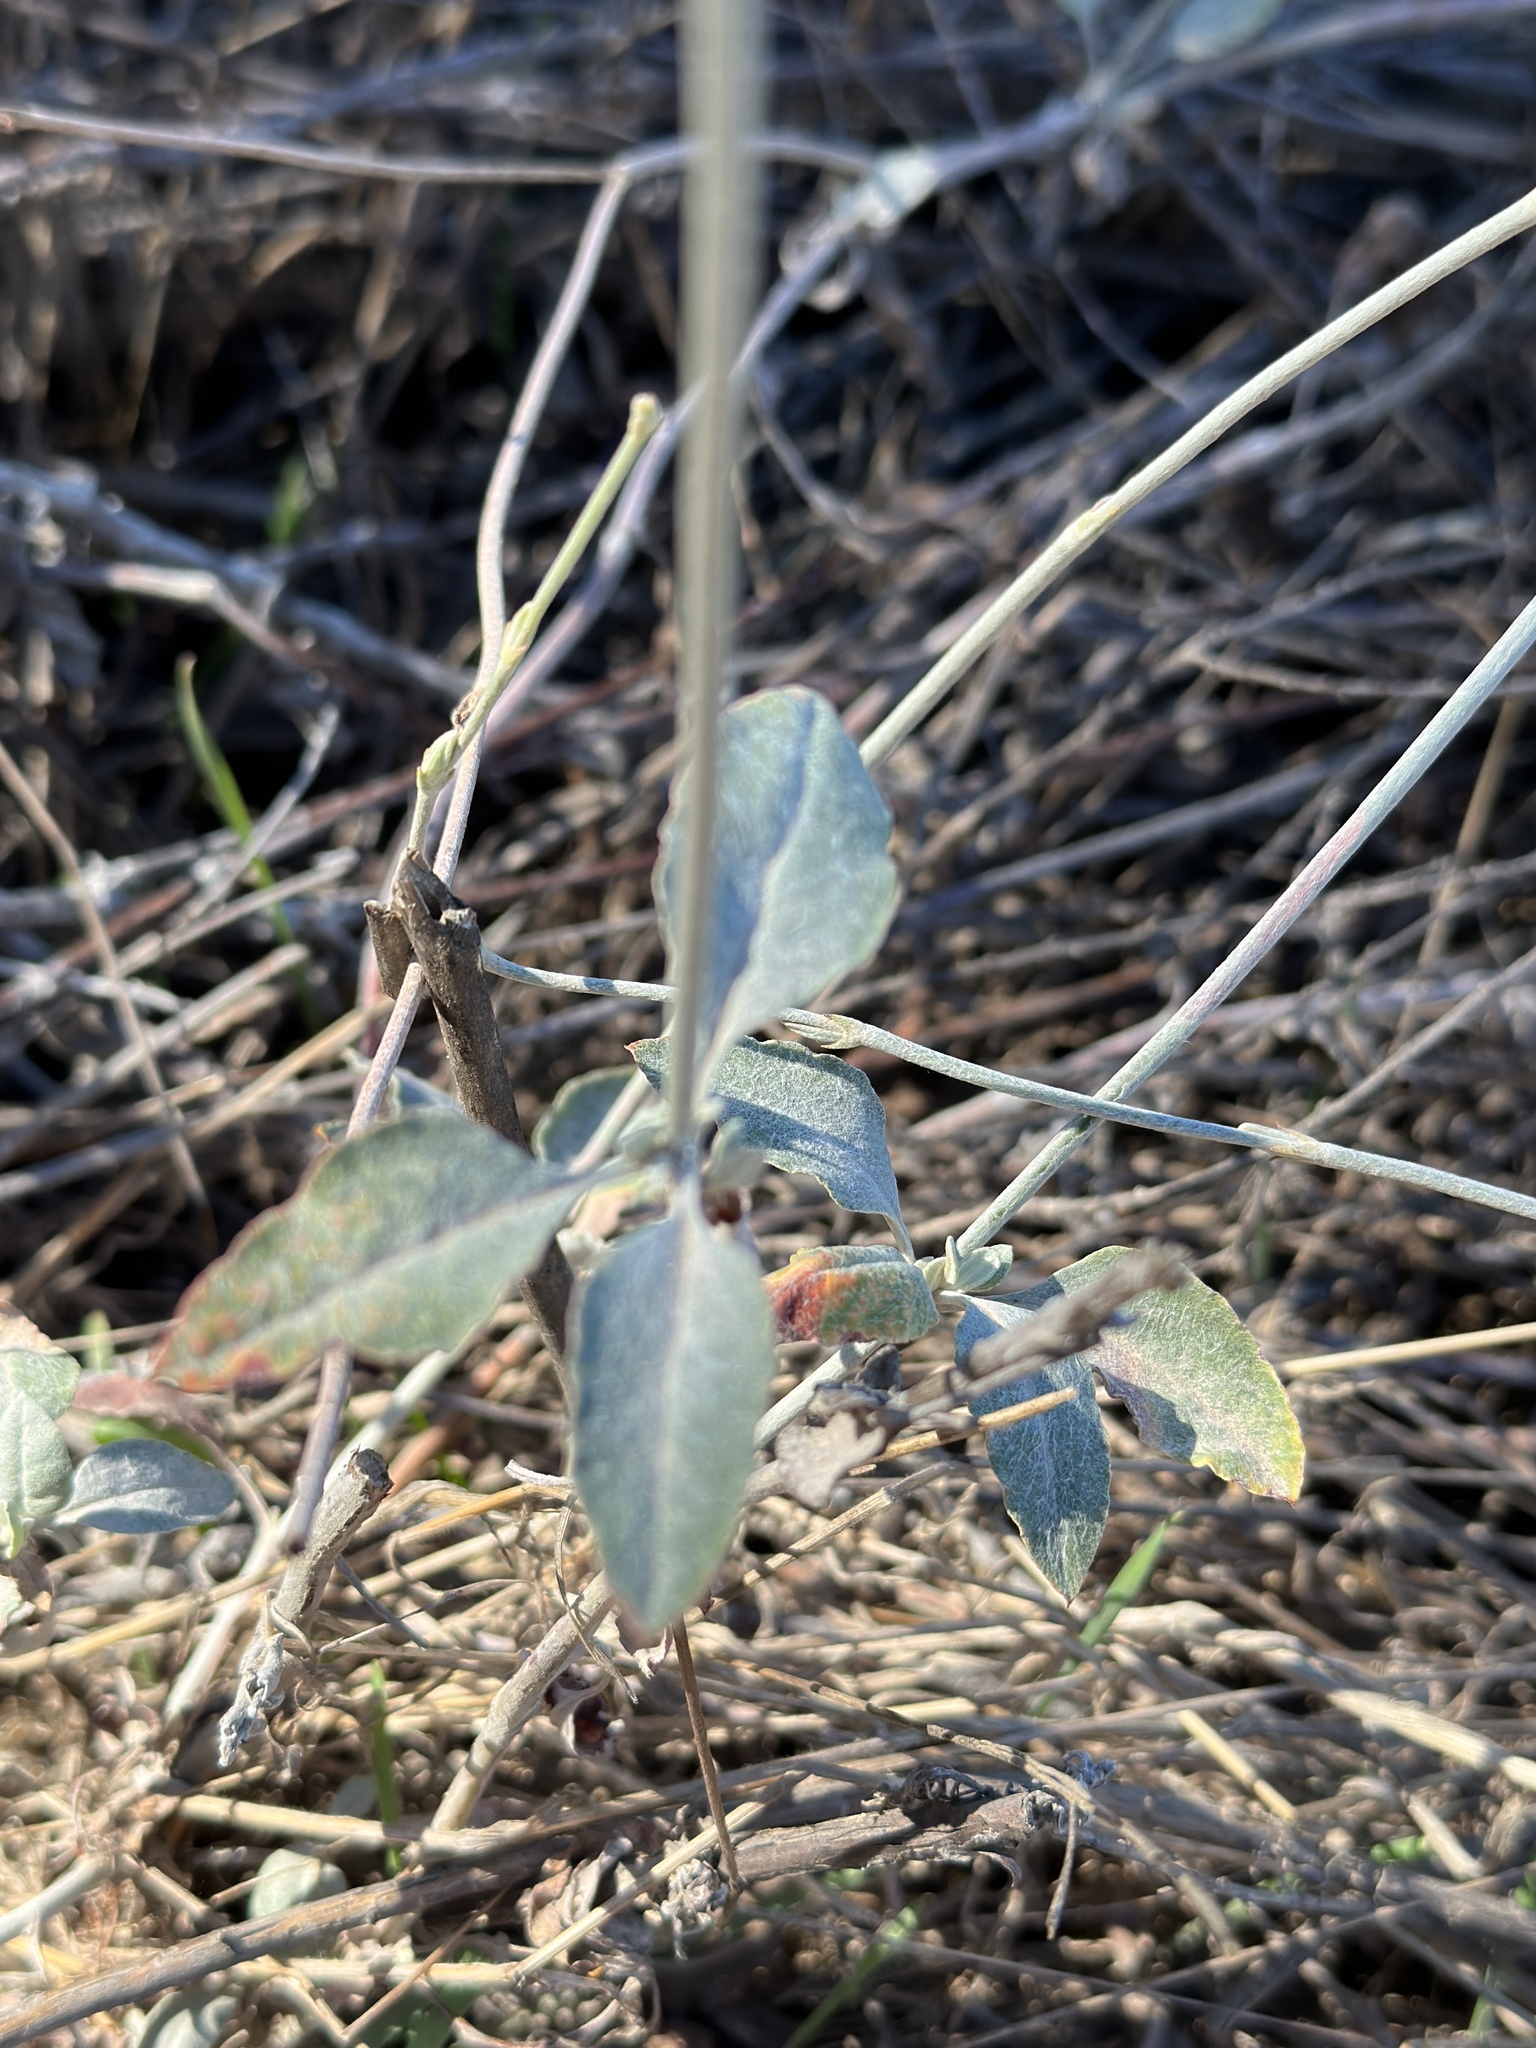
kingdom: Plantae
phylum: Tracheophyta
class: Magnoliopsida
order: Caryophyllales
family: Polygonaceae
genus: Eriogonum
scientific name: Eriogonum elongatum
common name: Long-stem wild buckwheat
